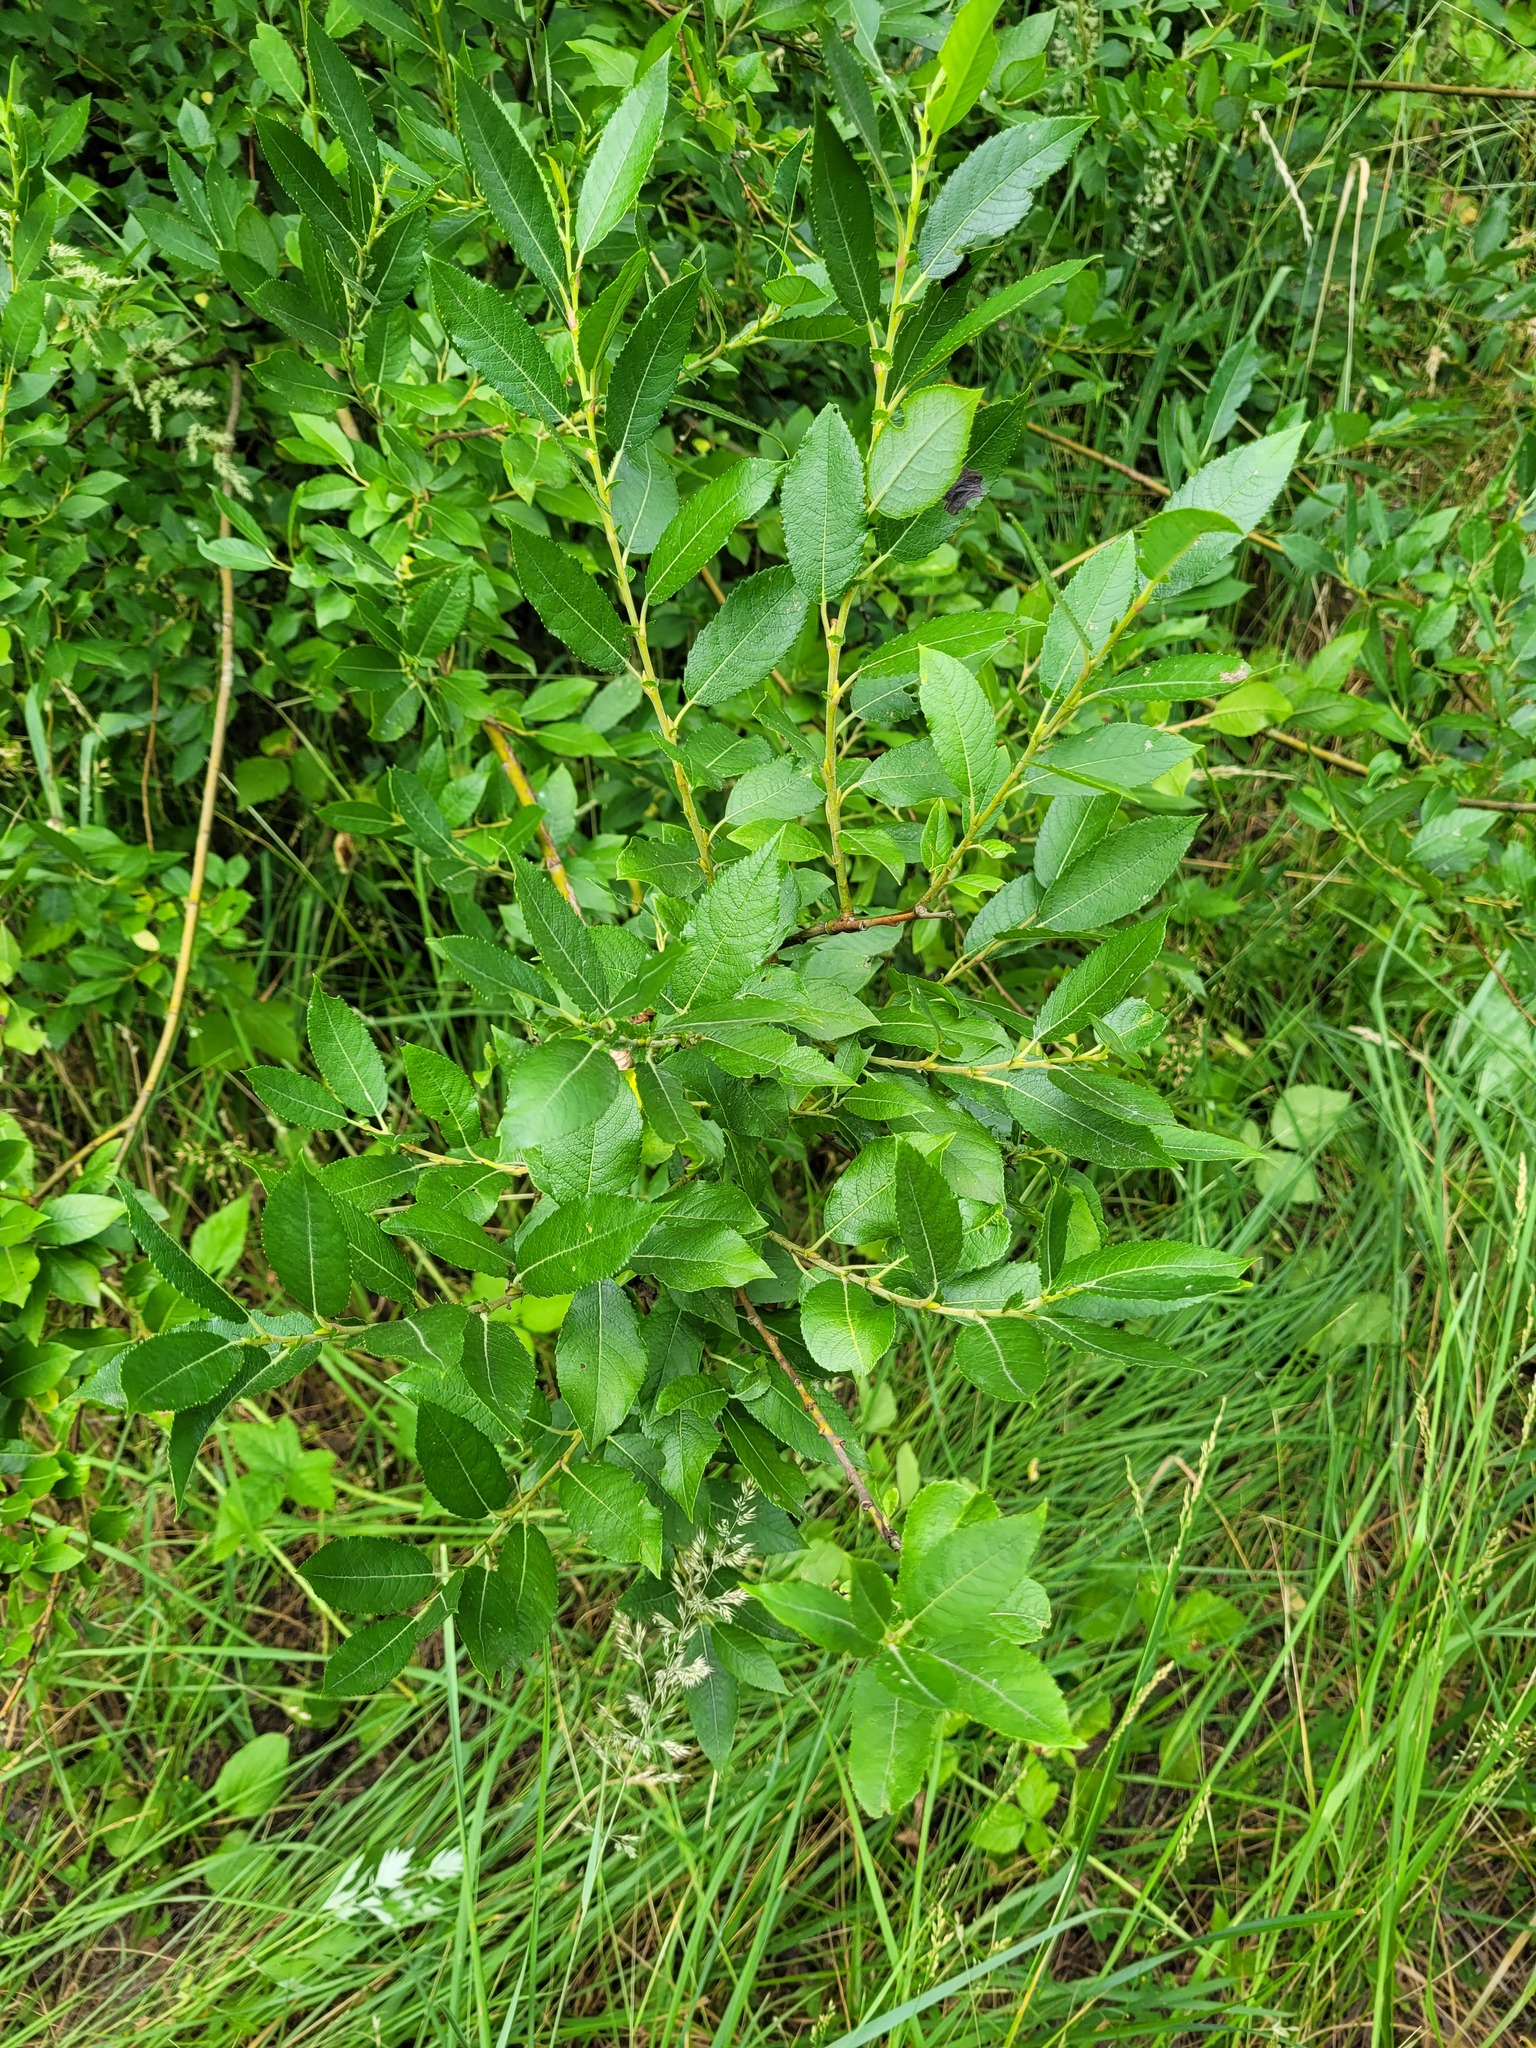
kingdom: Plantae
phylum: Tracheophyta
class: Magnoliopsida
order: Malpighiales
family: Salicaceae
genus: Salix
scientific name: Salix myrsinifolia
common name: Dark-leaved willow
